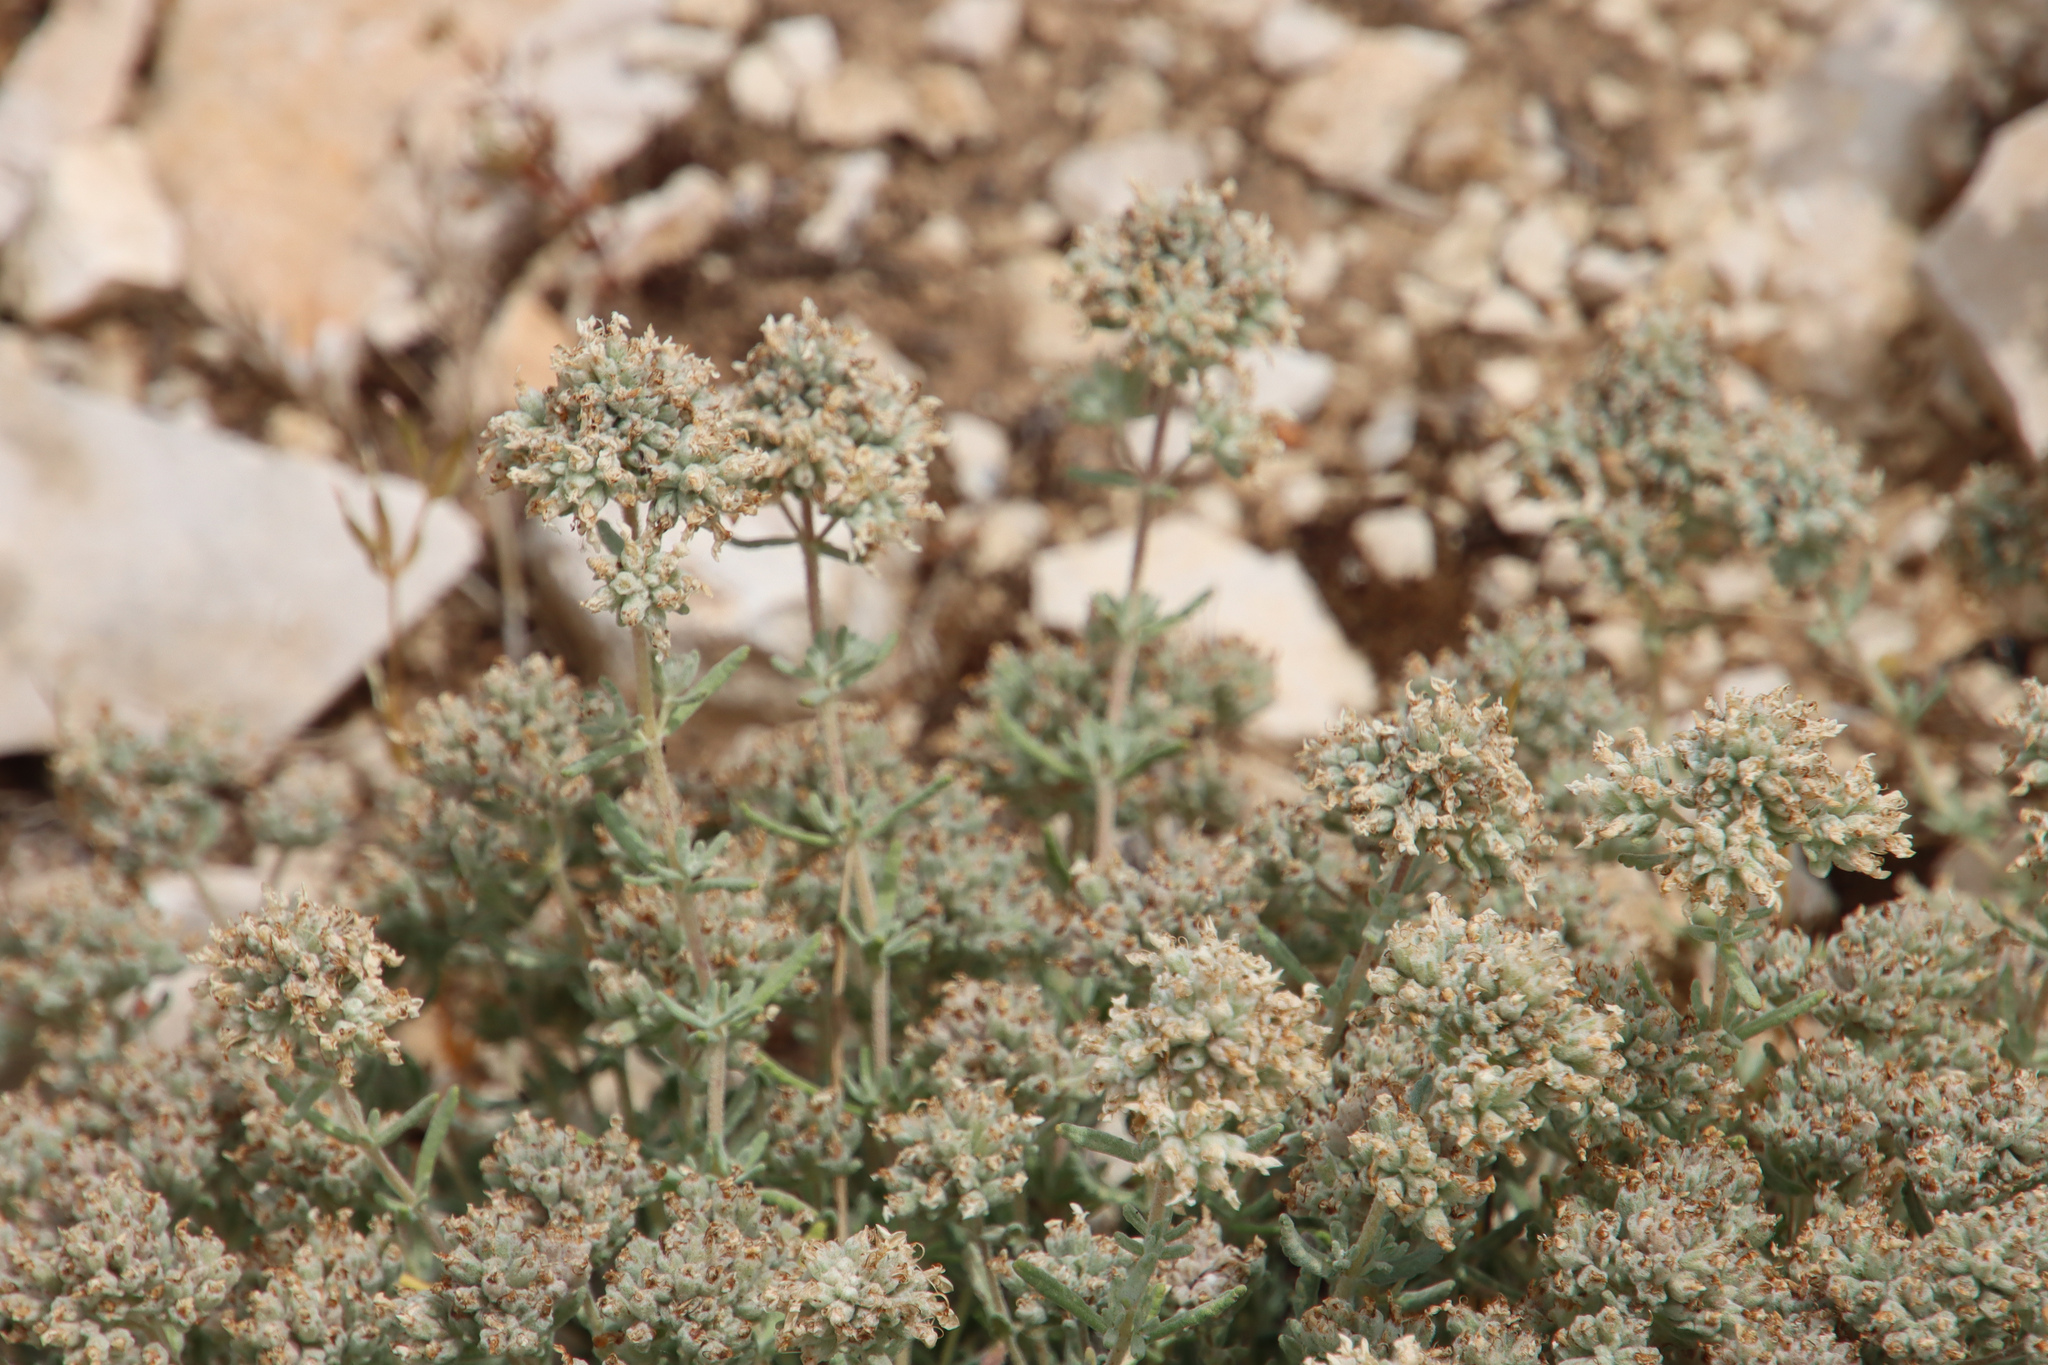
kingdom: Plantae
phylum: Tracheophyta
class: Magnoliopsida
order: Lamiales
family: Lamiaceae
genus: Teucrium
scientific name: Teucrium capitatum
